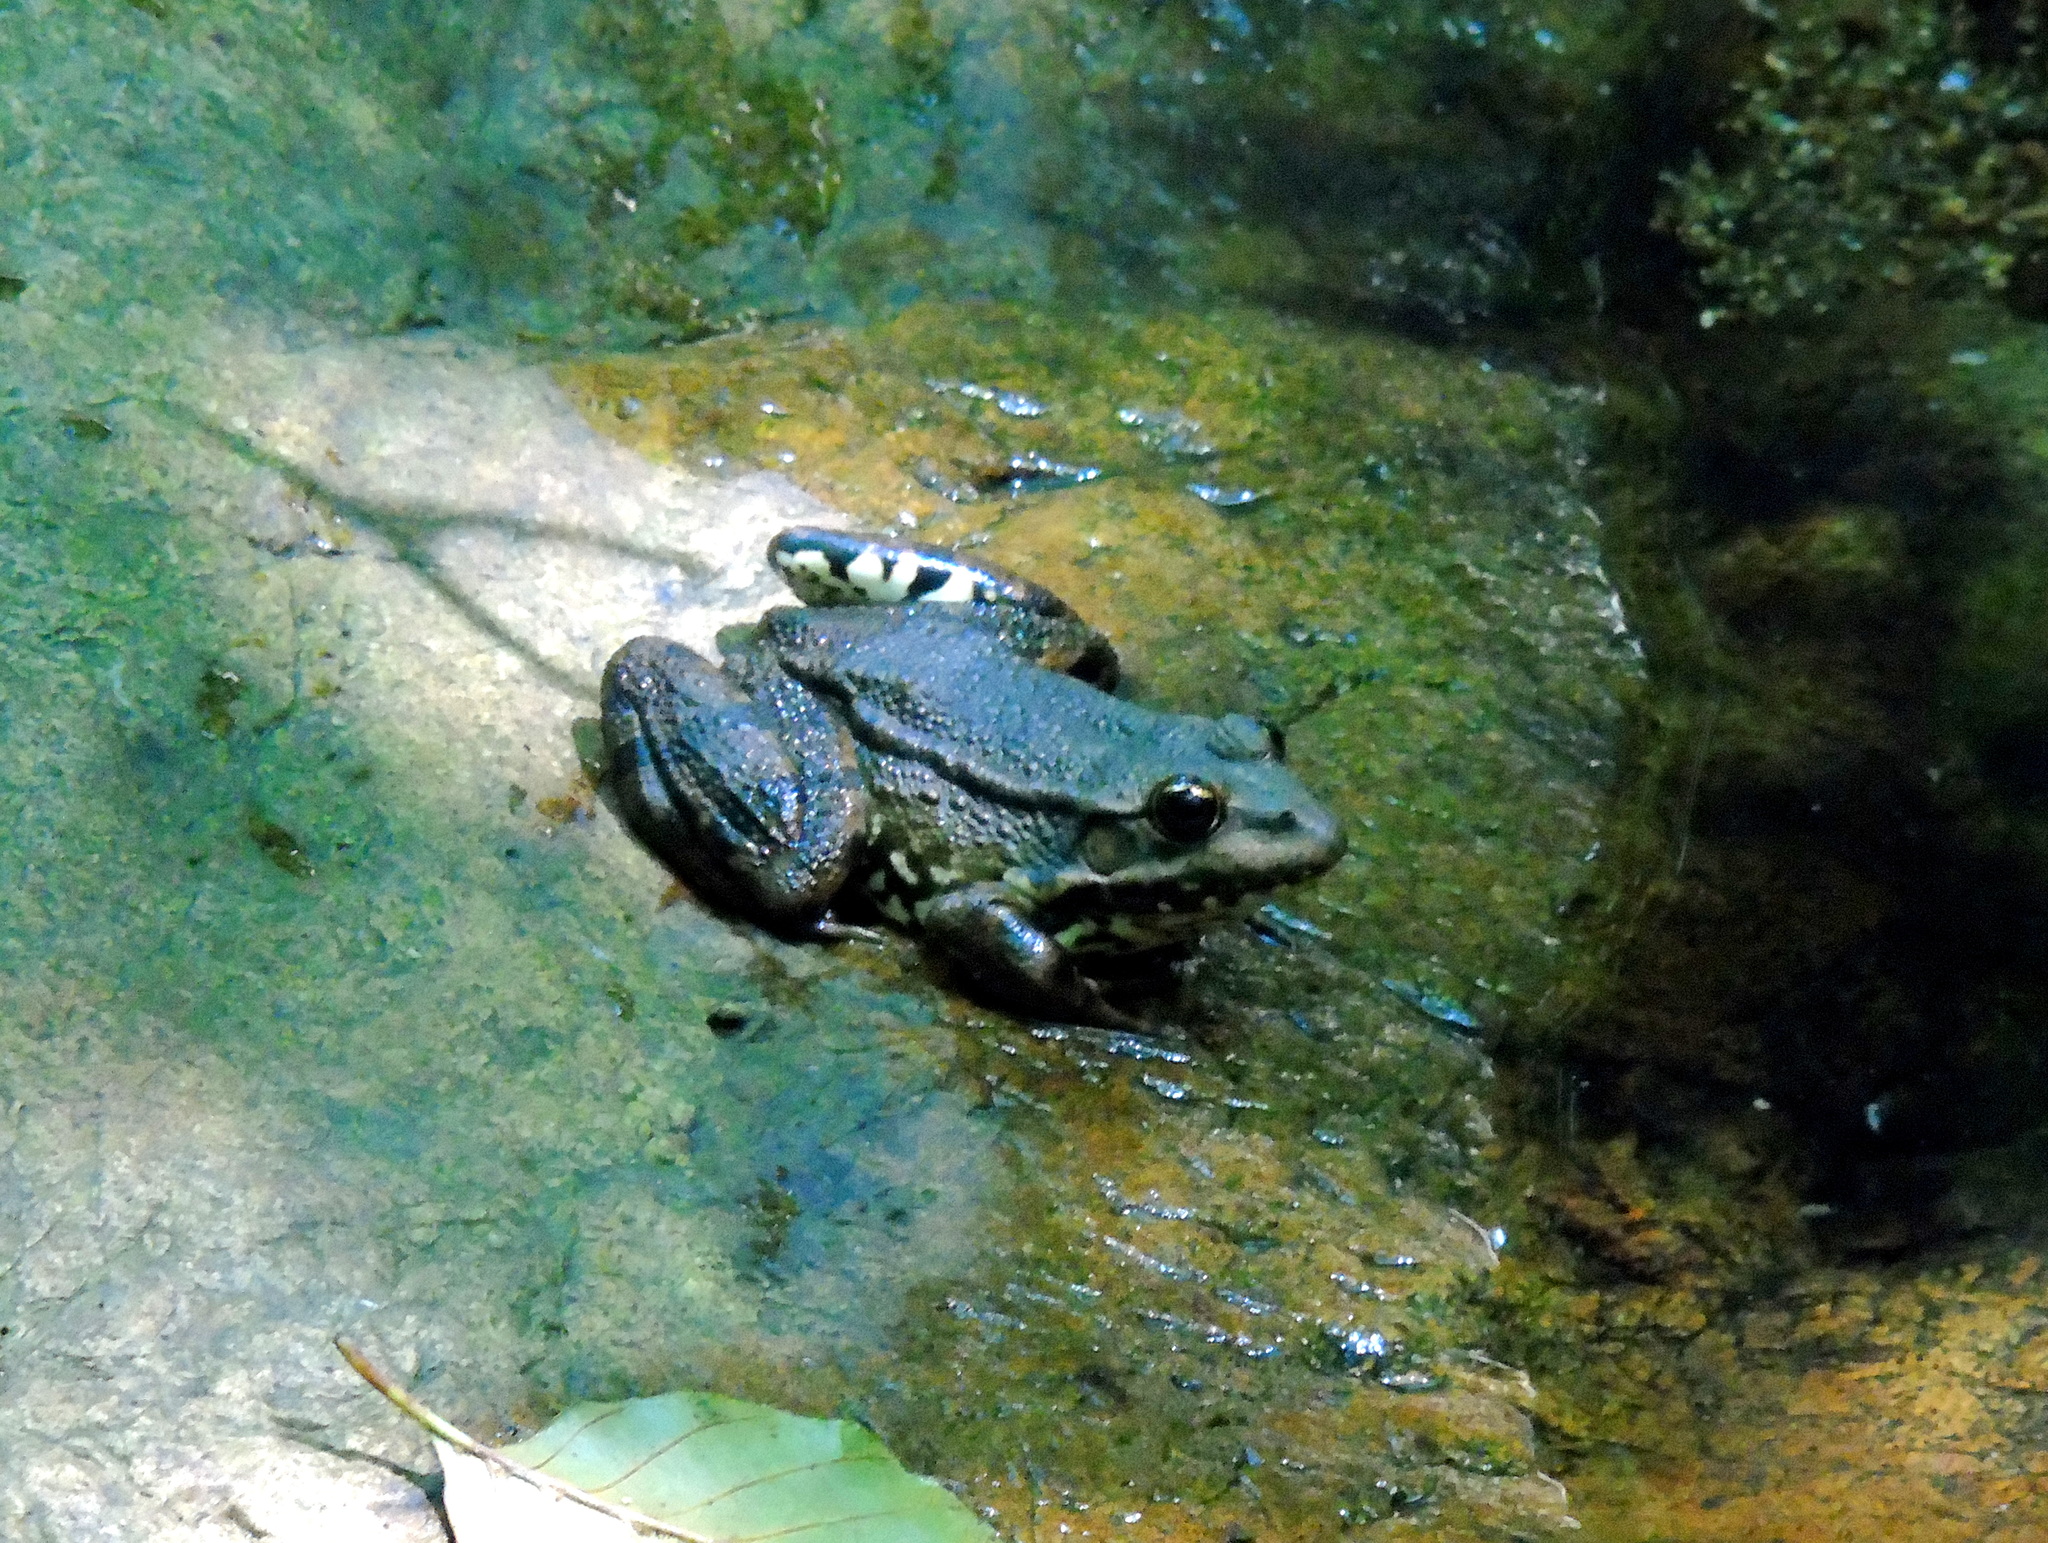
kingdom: Animalia
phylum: Chordata
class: Amphibia
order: Anura
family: Ranidae
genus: Pelophylax
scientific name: Pelophylax ridibundus
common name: Marsh frog
